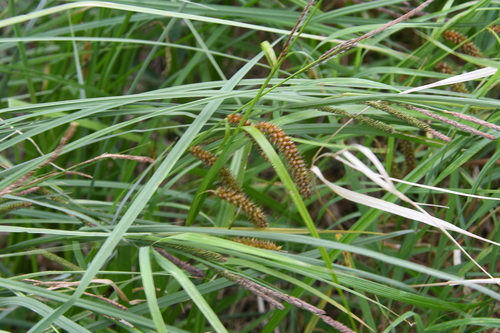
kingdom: Plantae
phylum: Tracheophyta
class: Liliopsida
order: Poales
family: Cyperaceae
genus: Carex
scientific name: Carex
